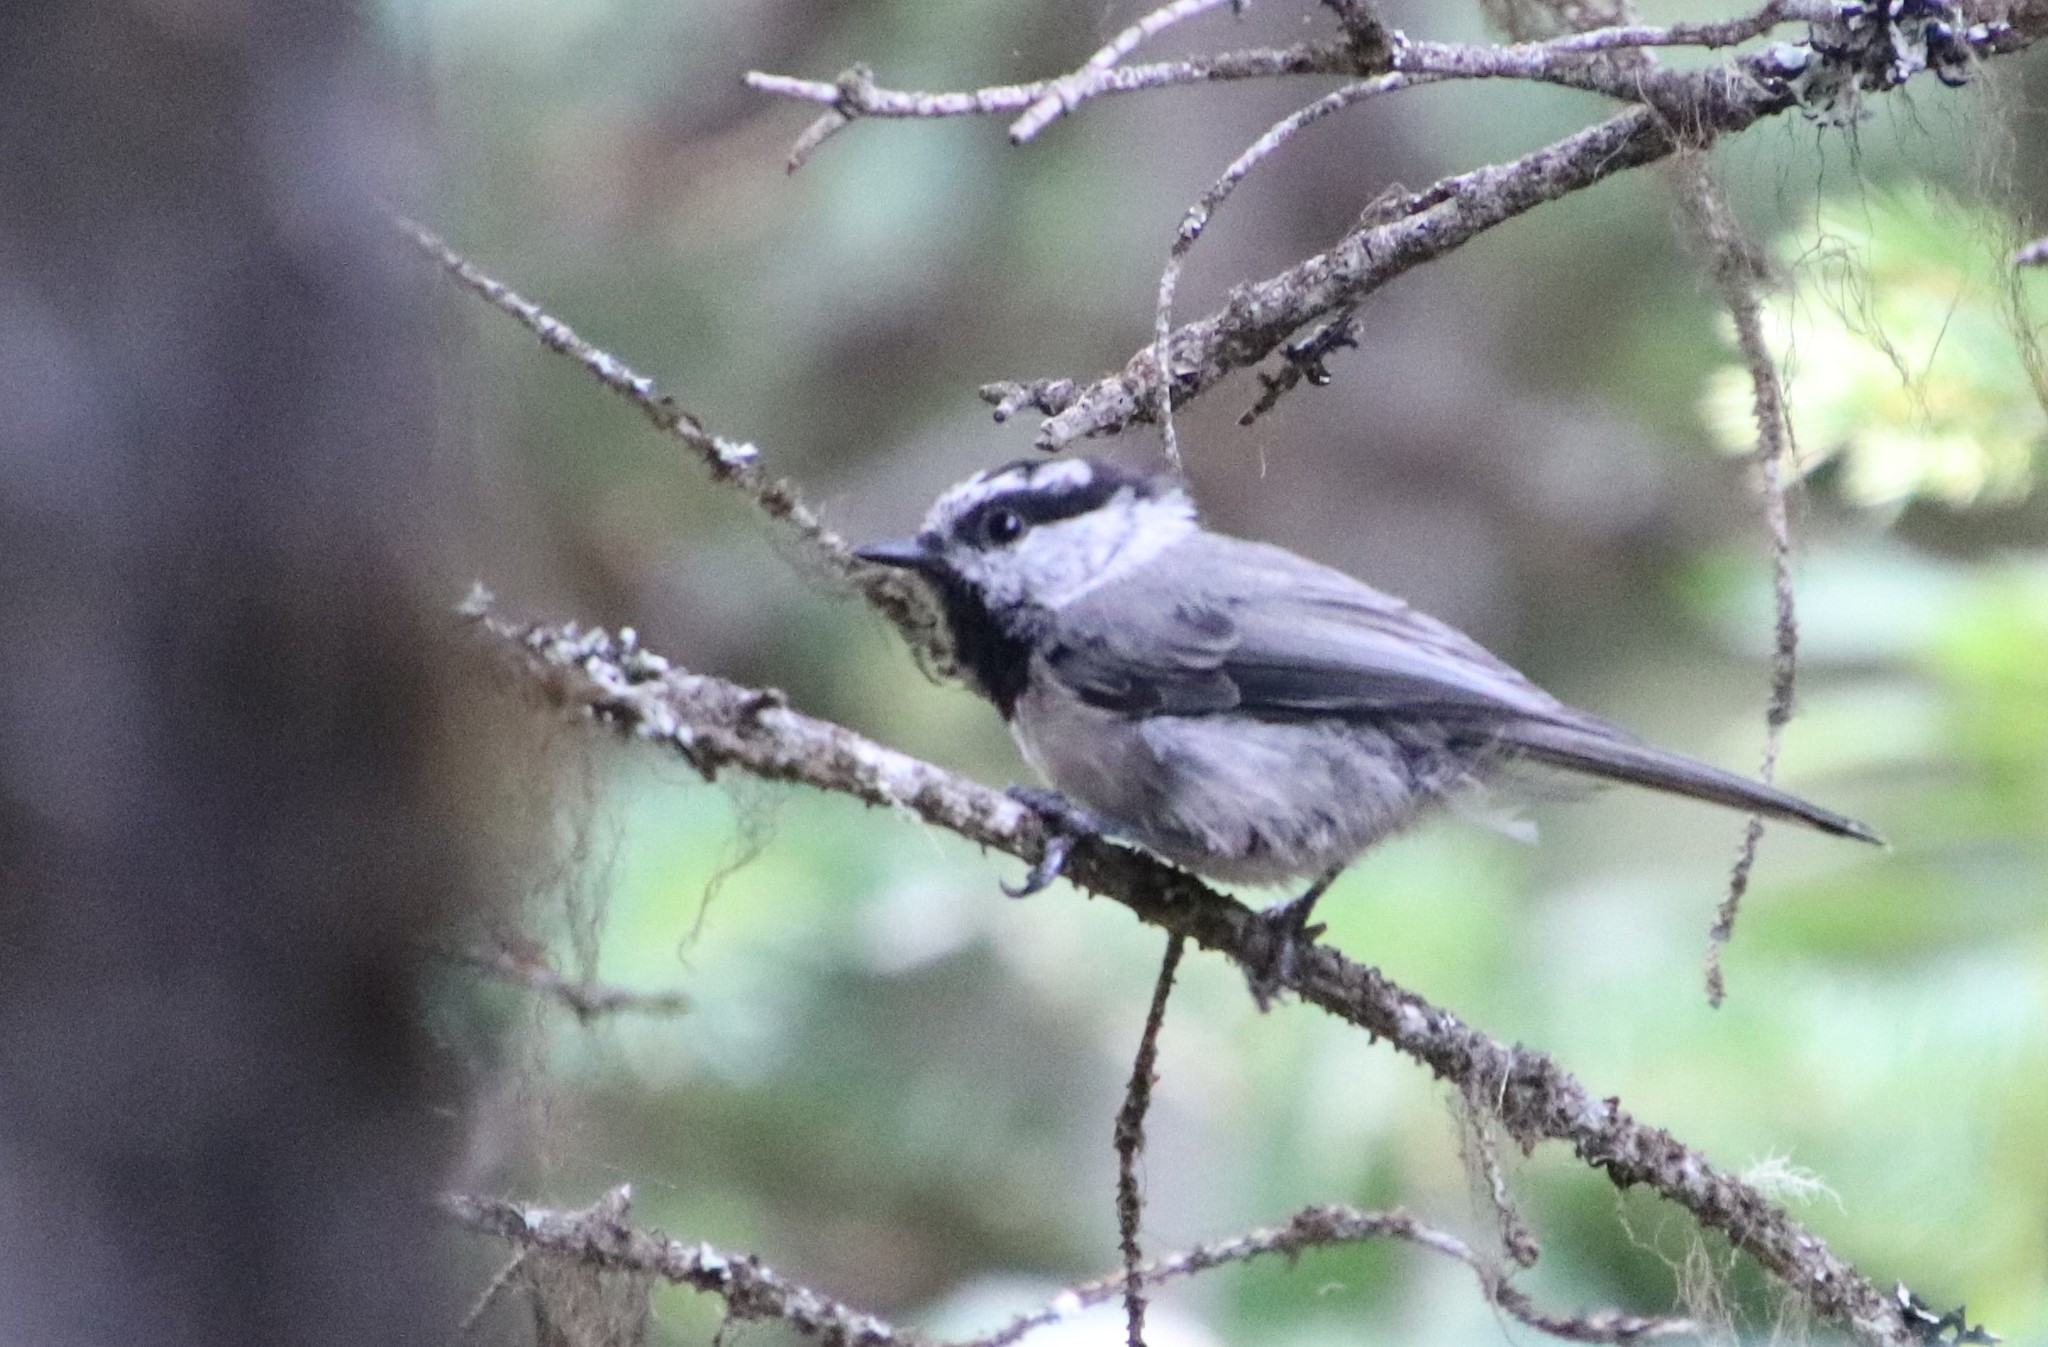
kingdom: Animalia
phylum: Chordata
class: Aves
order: Passeriformes
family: Paridae
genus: Poecile
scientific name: Poecile gambeli
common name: Mountain chickadee
